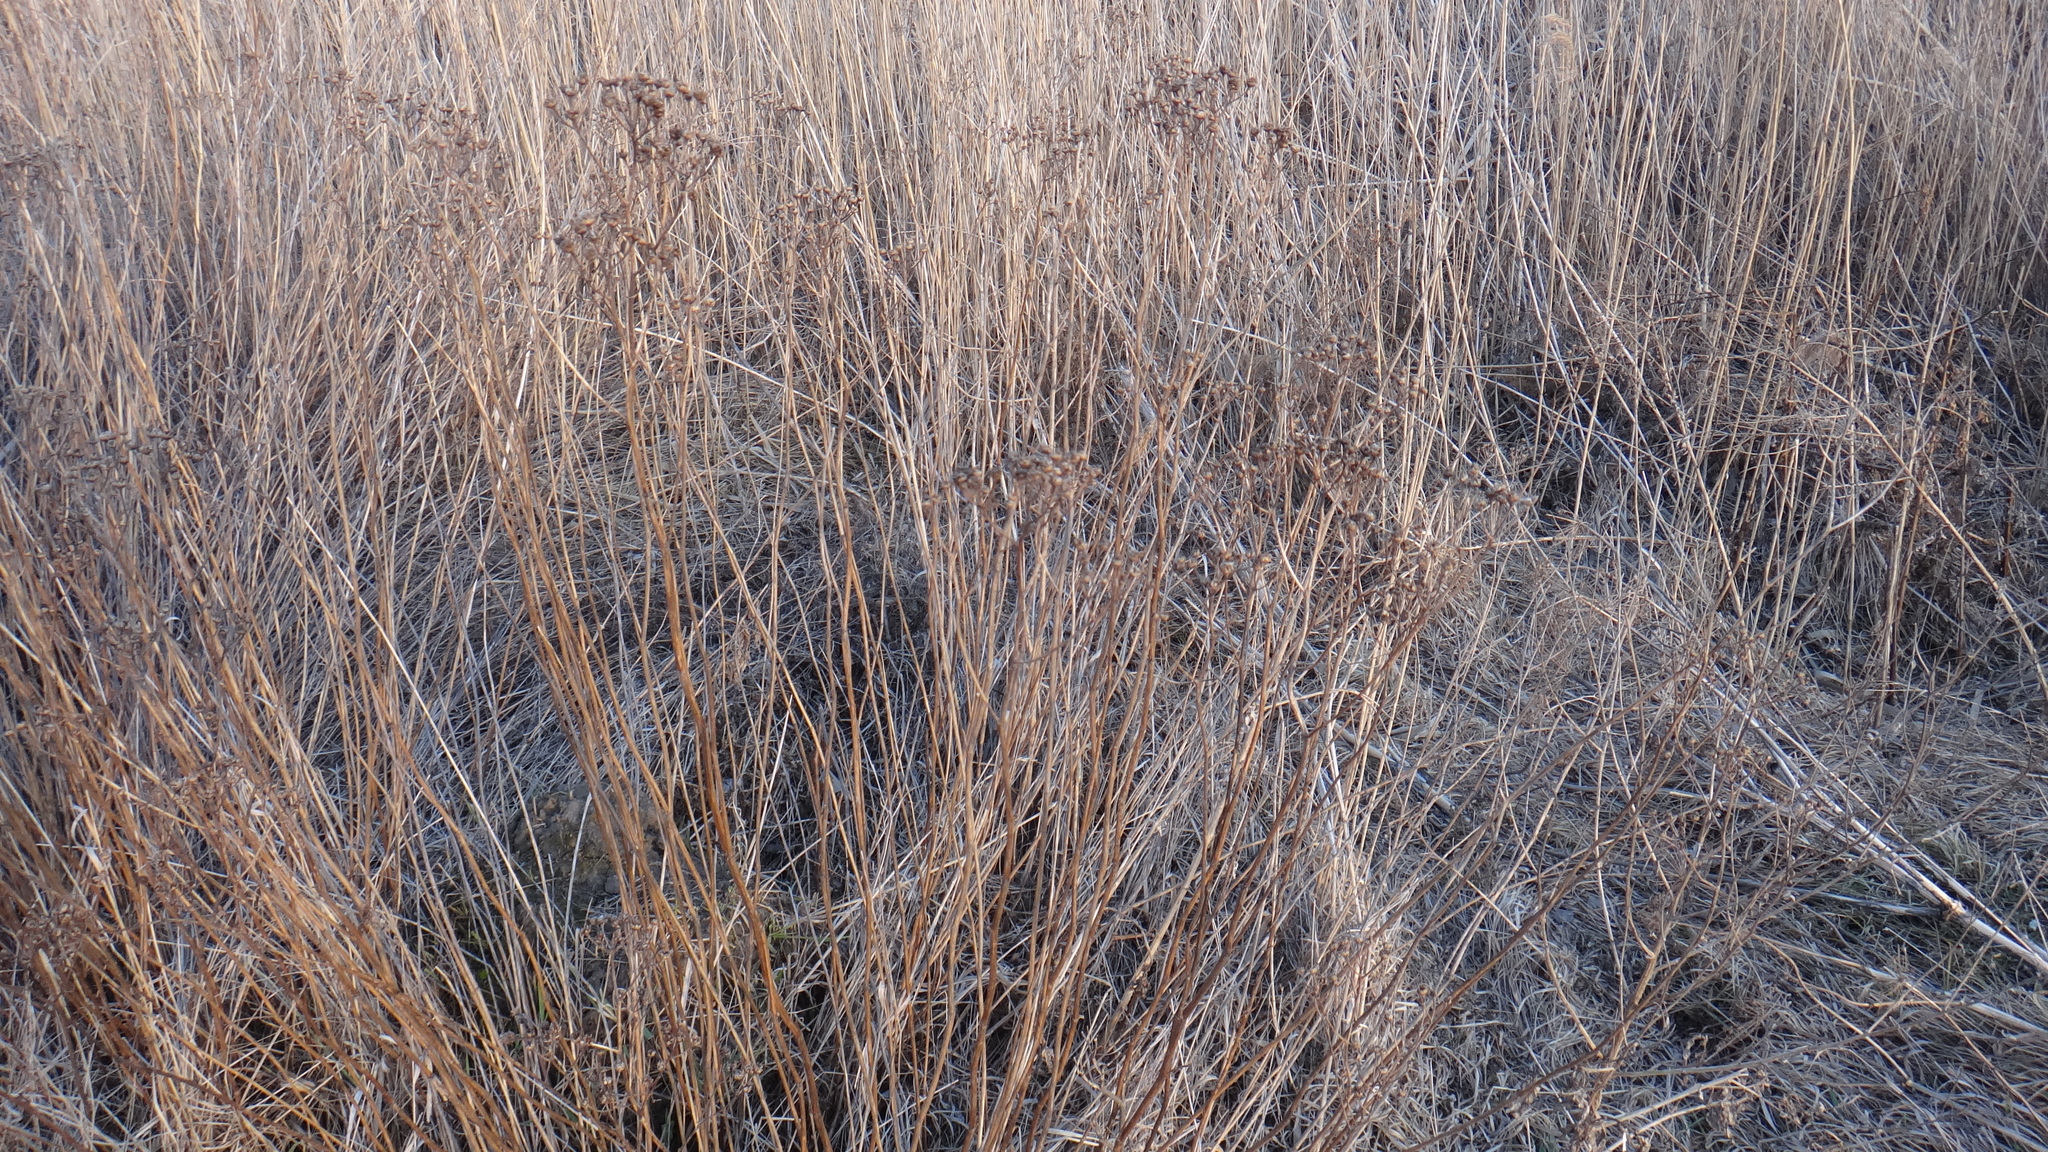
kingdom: Plantae
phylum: Tracheophyta
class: Magnoliopsida
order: Asterales
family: Asteraceae
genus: Tanacetum
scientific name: Tanacetum vulgare
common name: Common tansy
